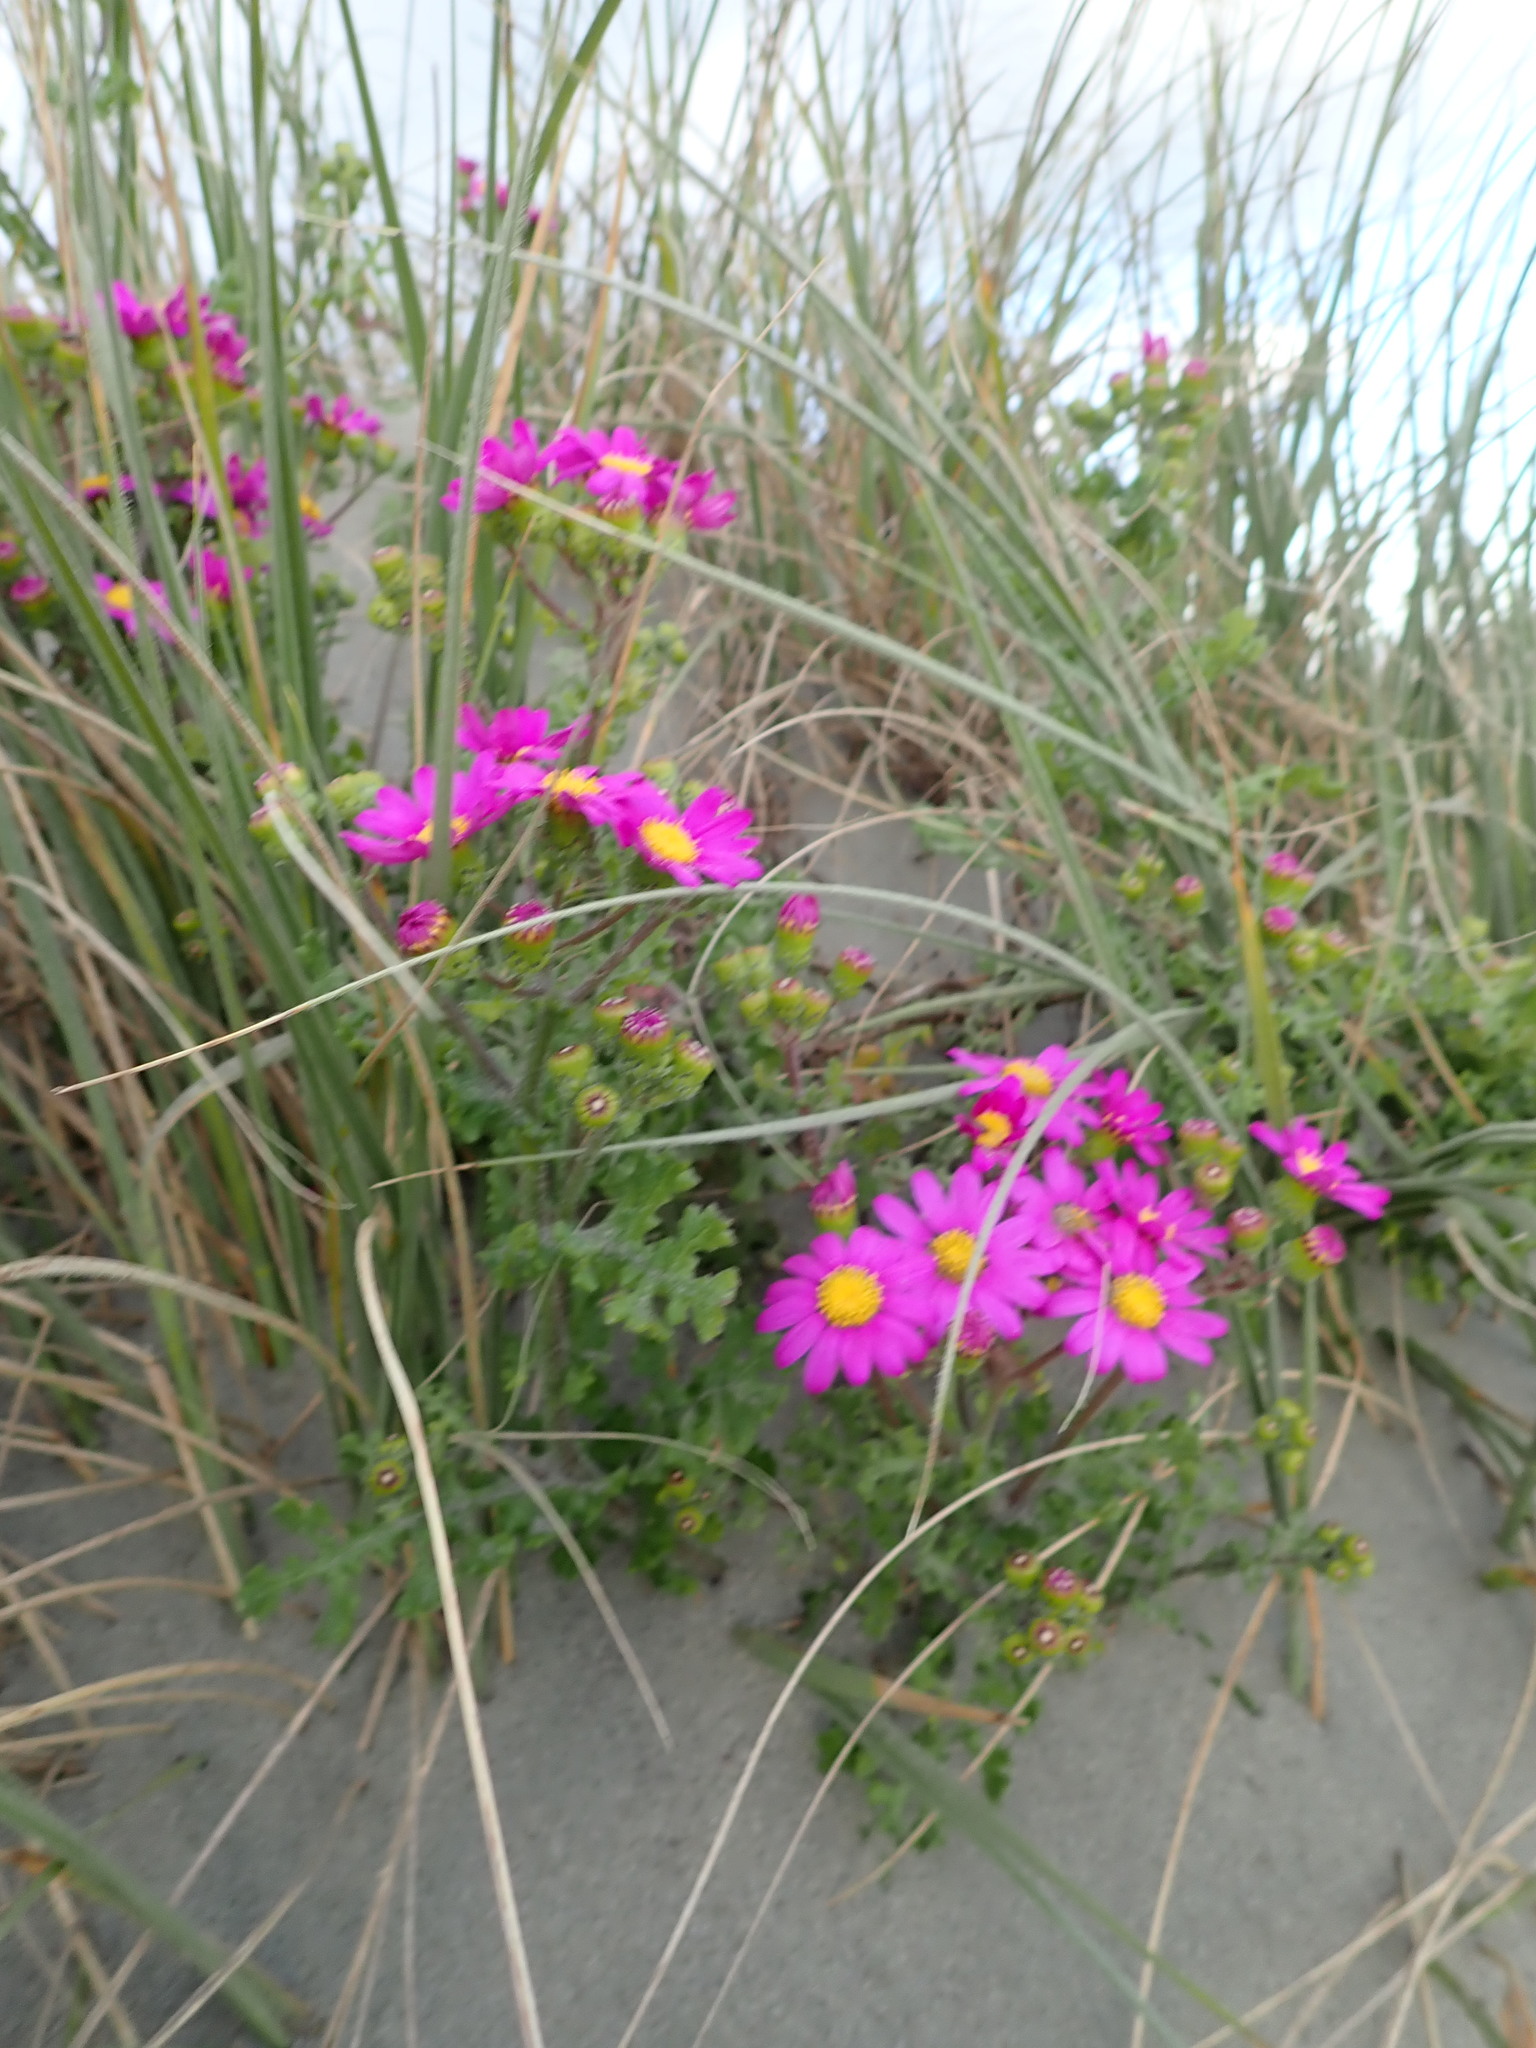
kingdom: Plantae
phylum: Tracheophyta
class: Magnoliopsida
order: Asterales
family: Asteraceae
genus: Senecio
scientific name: Senecio elegans
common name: Purple groundsel
